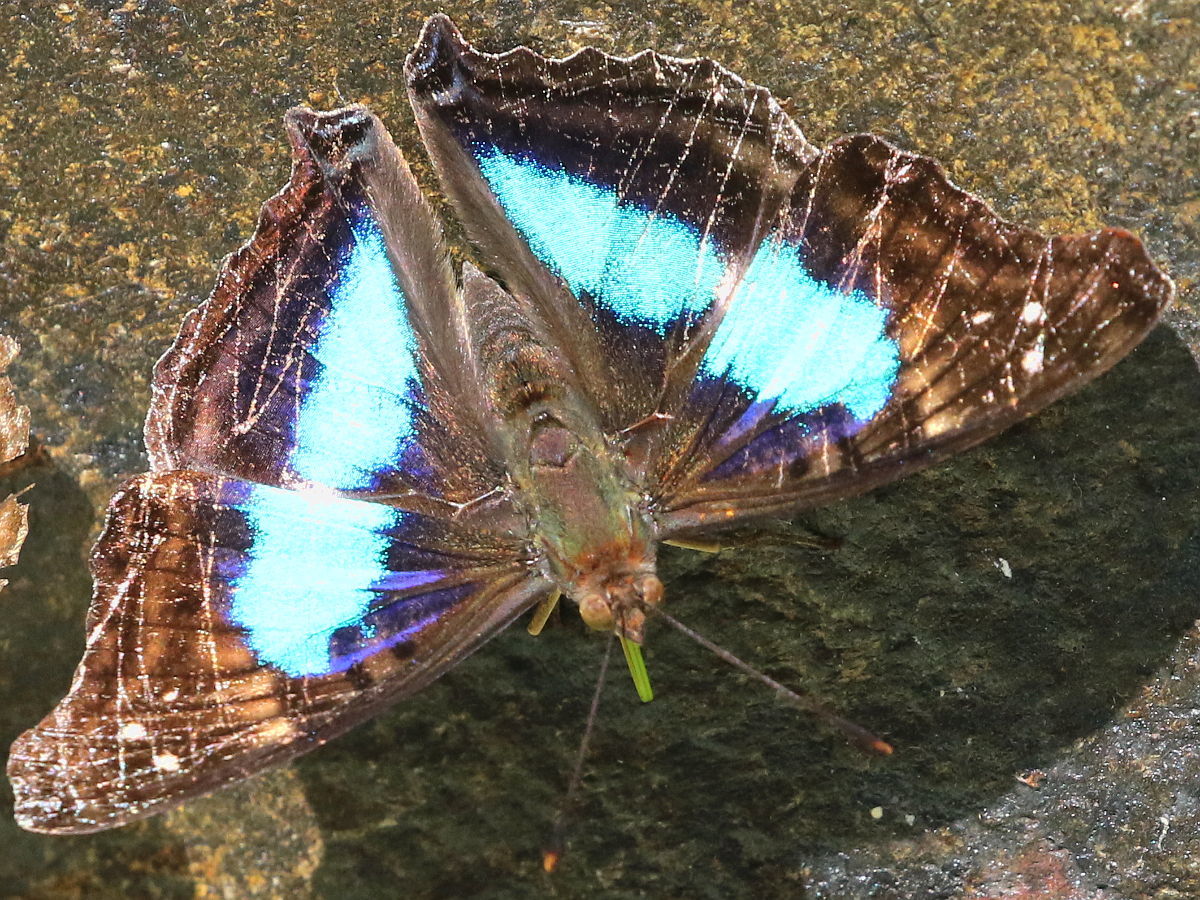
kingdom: Animalia
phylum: Arthropoda
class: Insecta
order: Lepidoptera
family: Nymphalidae
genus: Doxocopa
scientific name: Doxocopa laurentia
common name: Turquoise emperor
